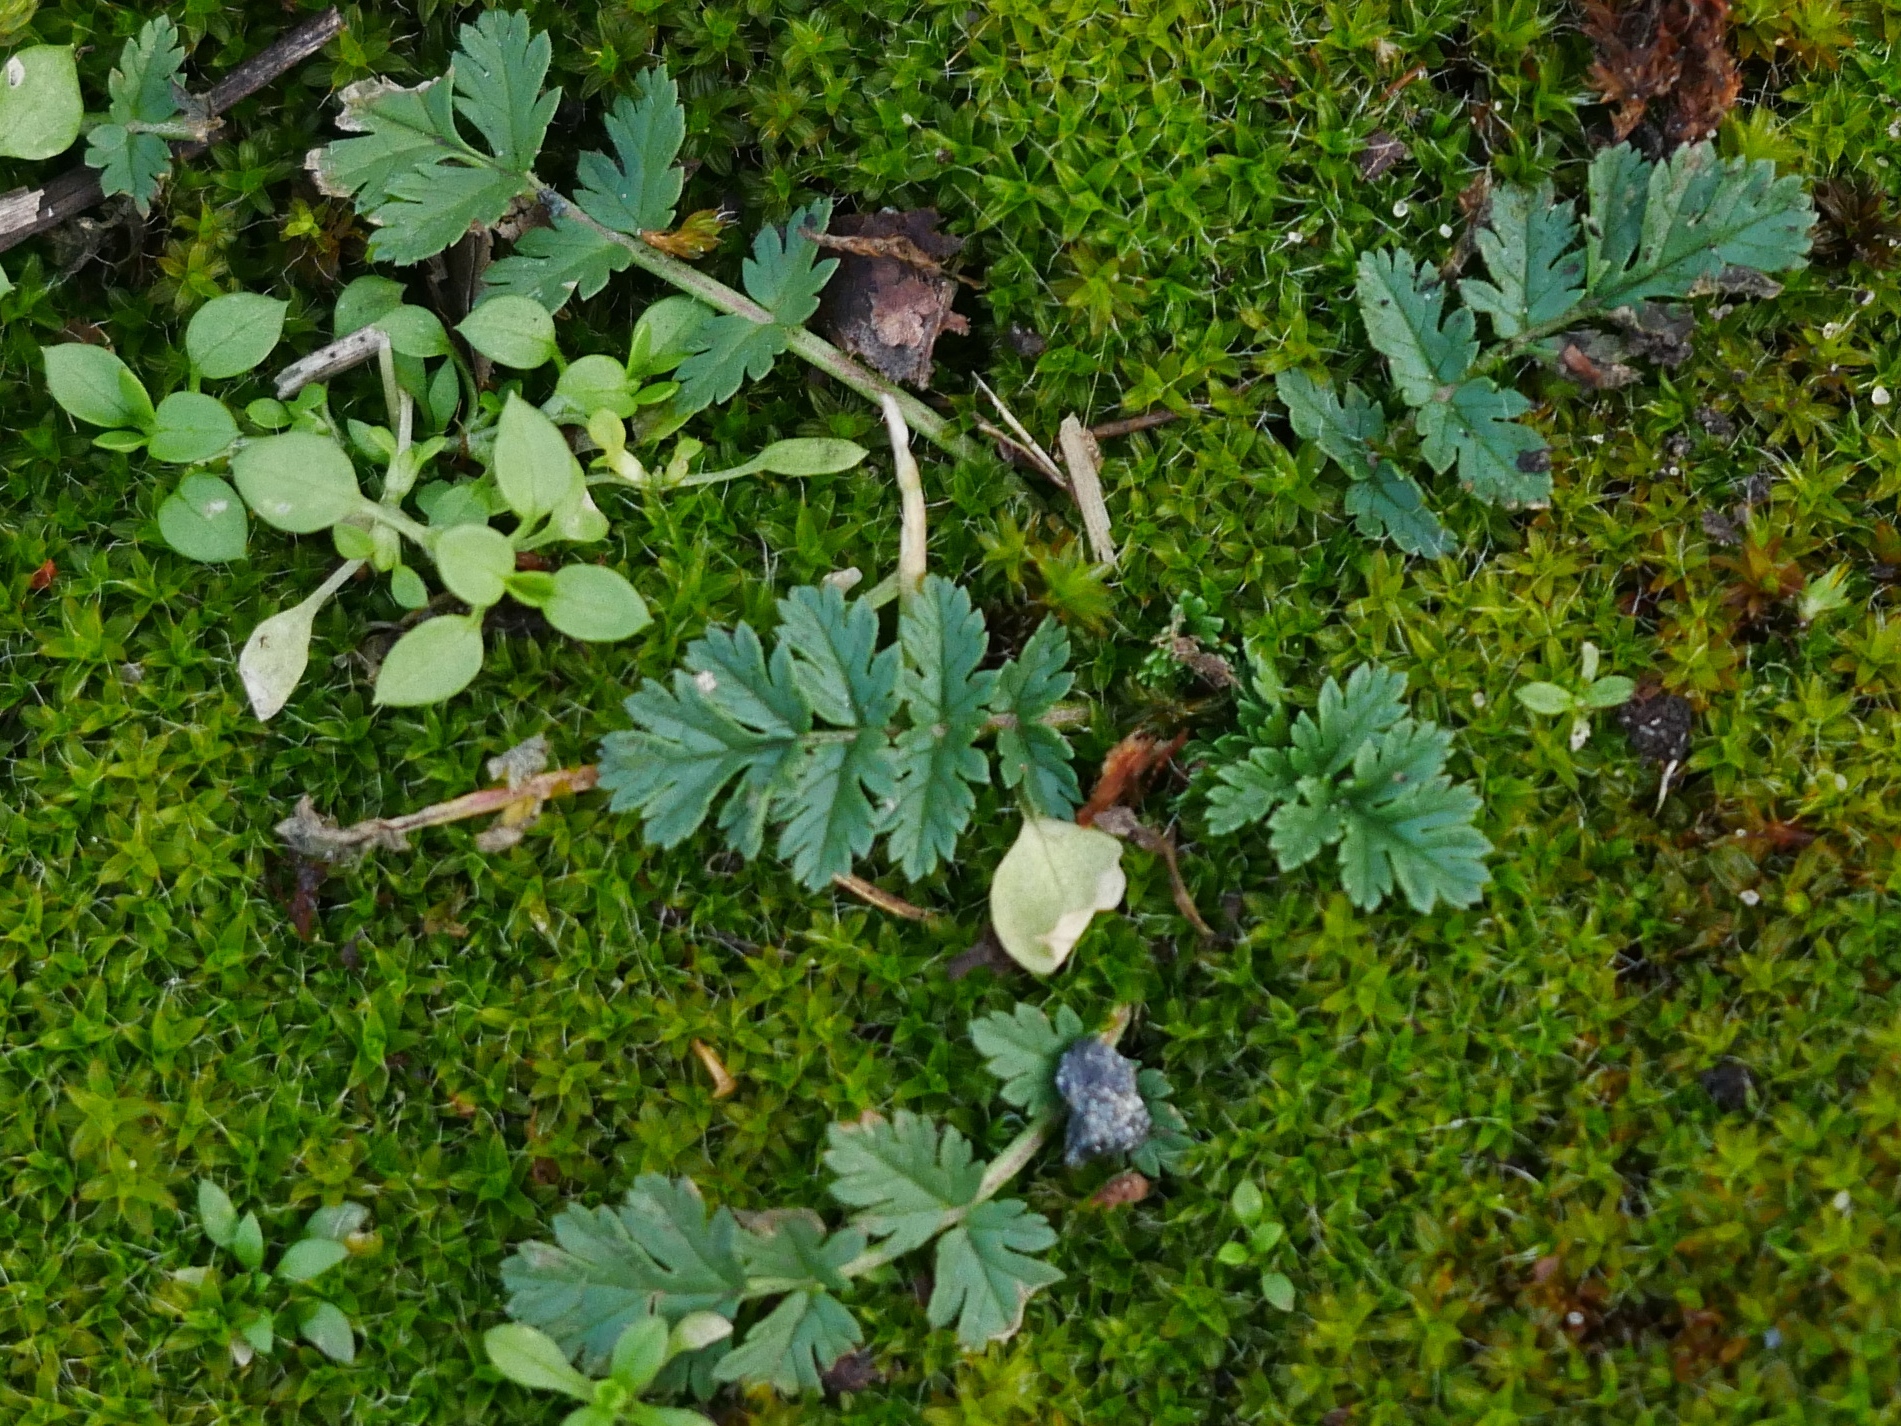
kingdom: Plantae
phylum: Tracheophyta
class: Magnoliopsida
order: Geraniales
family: Geraniaceae
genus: Erodium
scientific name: Erodium cicutarium
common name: Common stork's-bill
